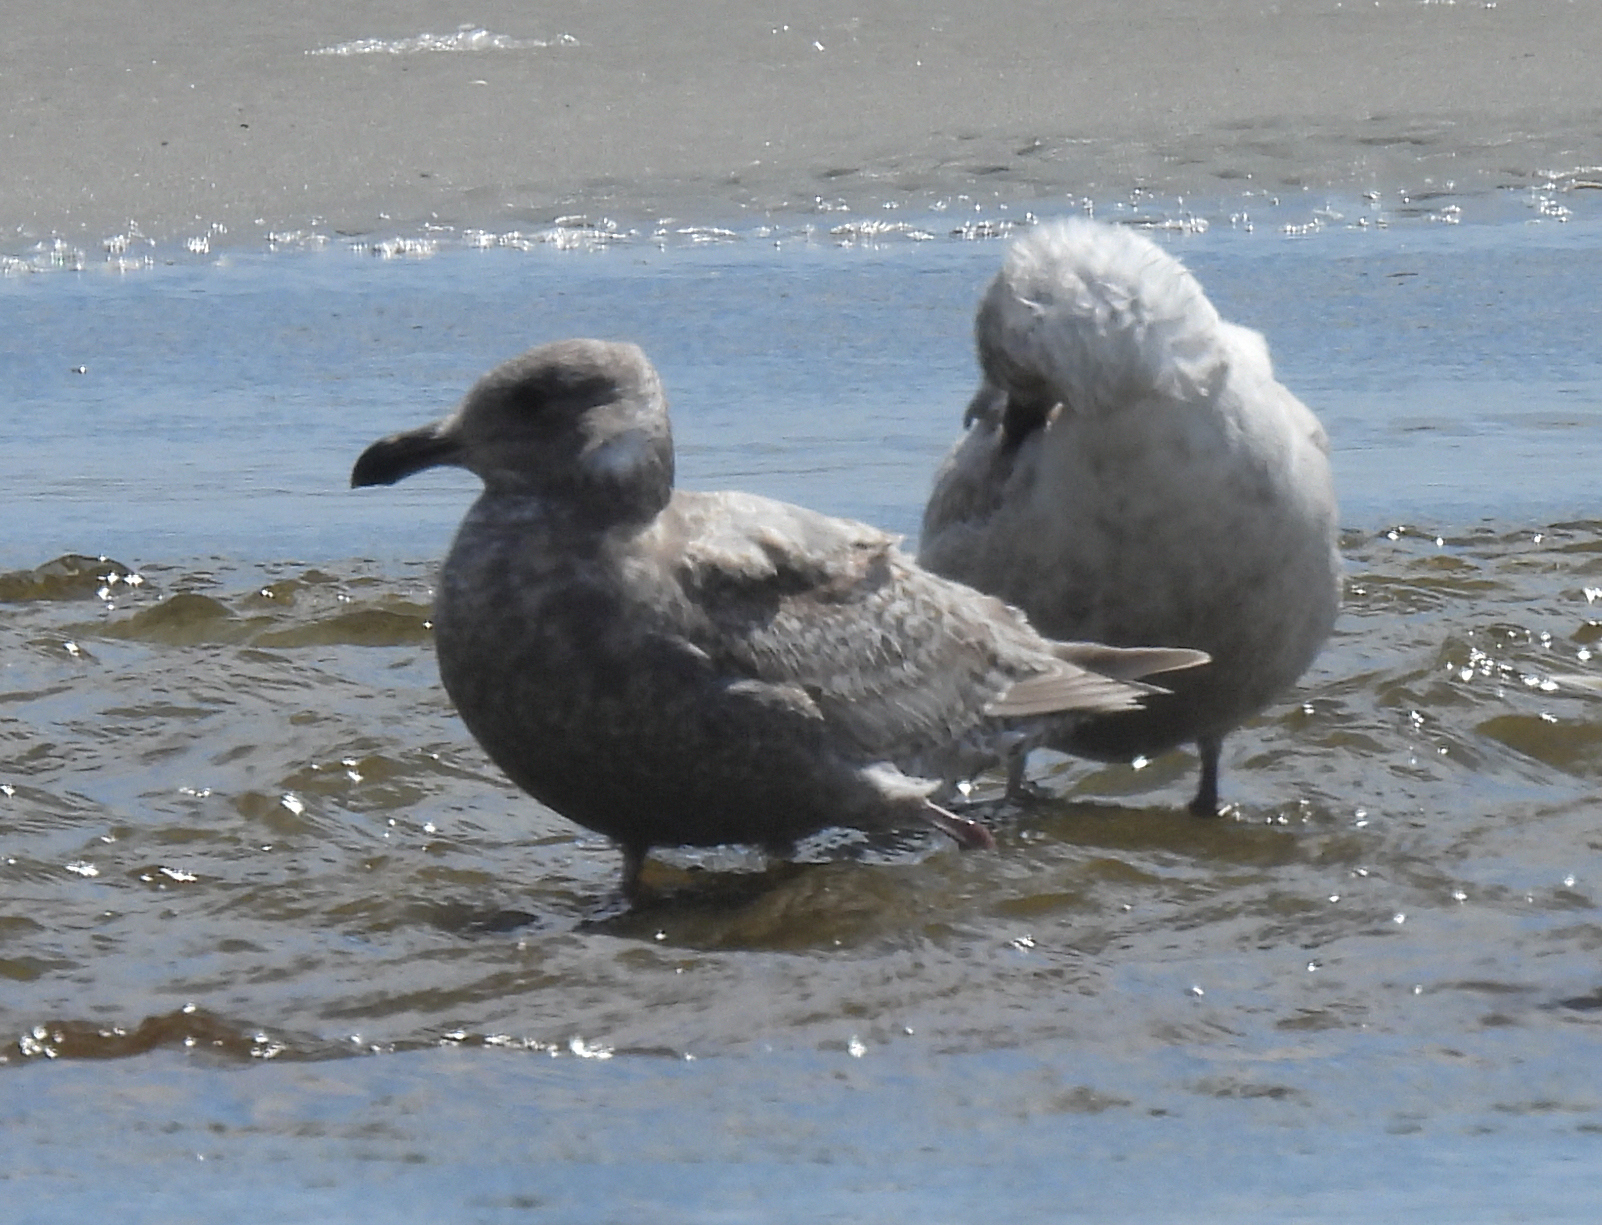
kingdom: Animalia
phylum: Chordata
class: Aves
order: Charadriiformes
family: Laridae
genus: Larus
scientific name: Larus glaucescens
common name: Glaucous-winged gull
